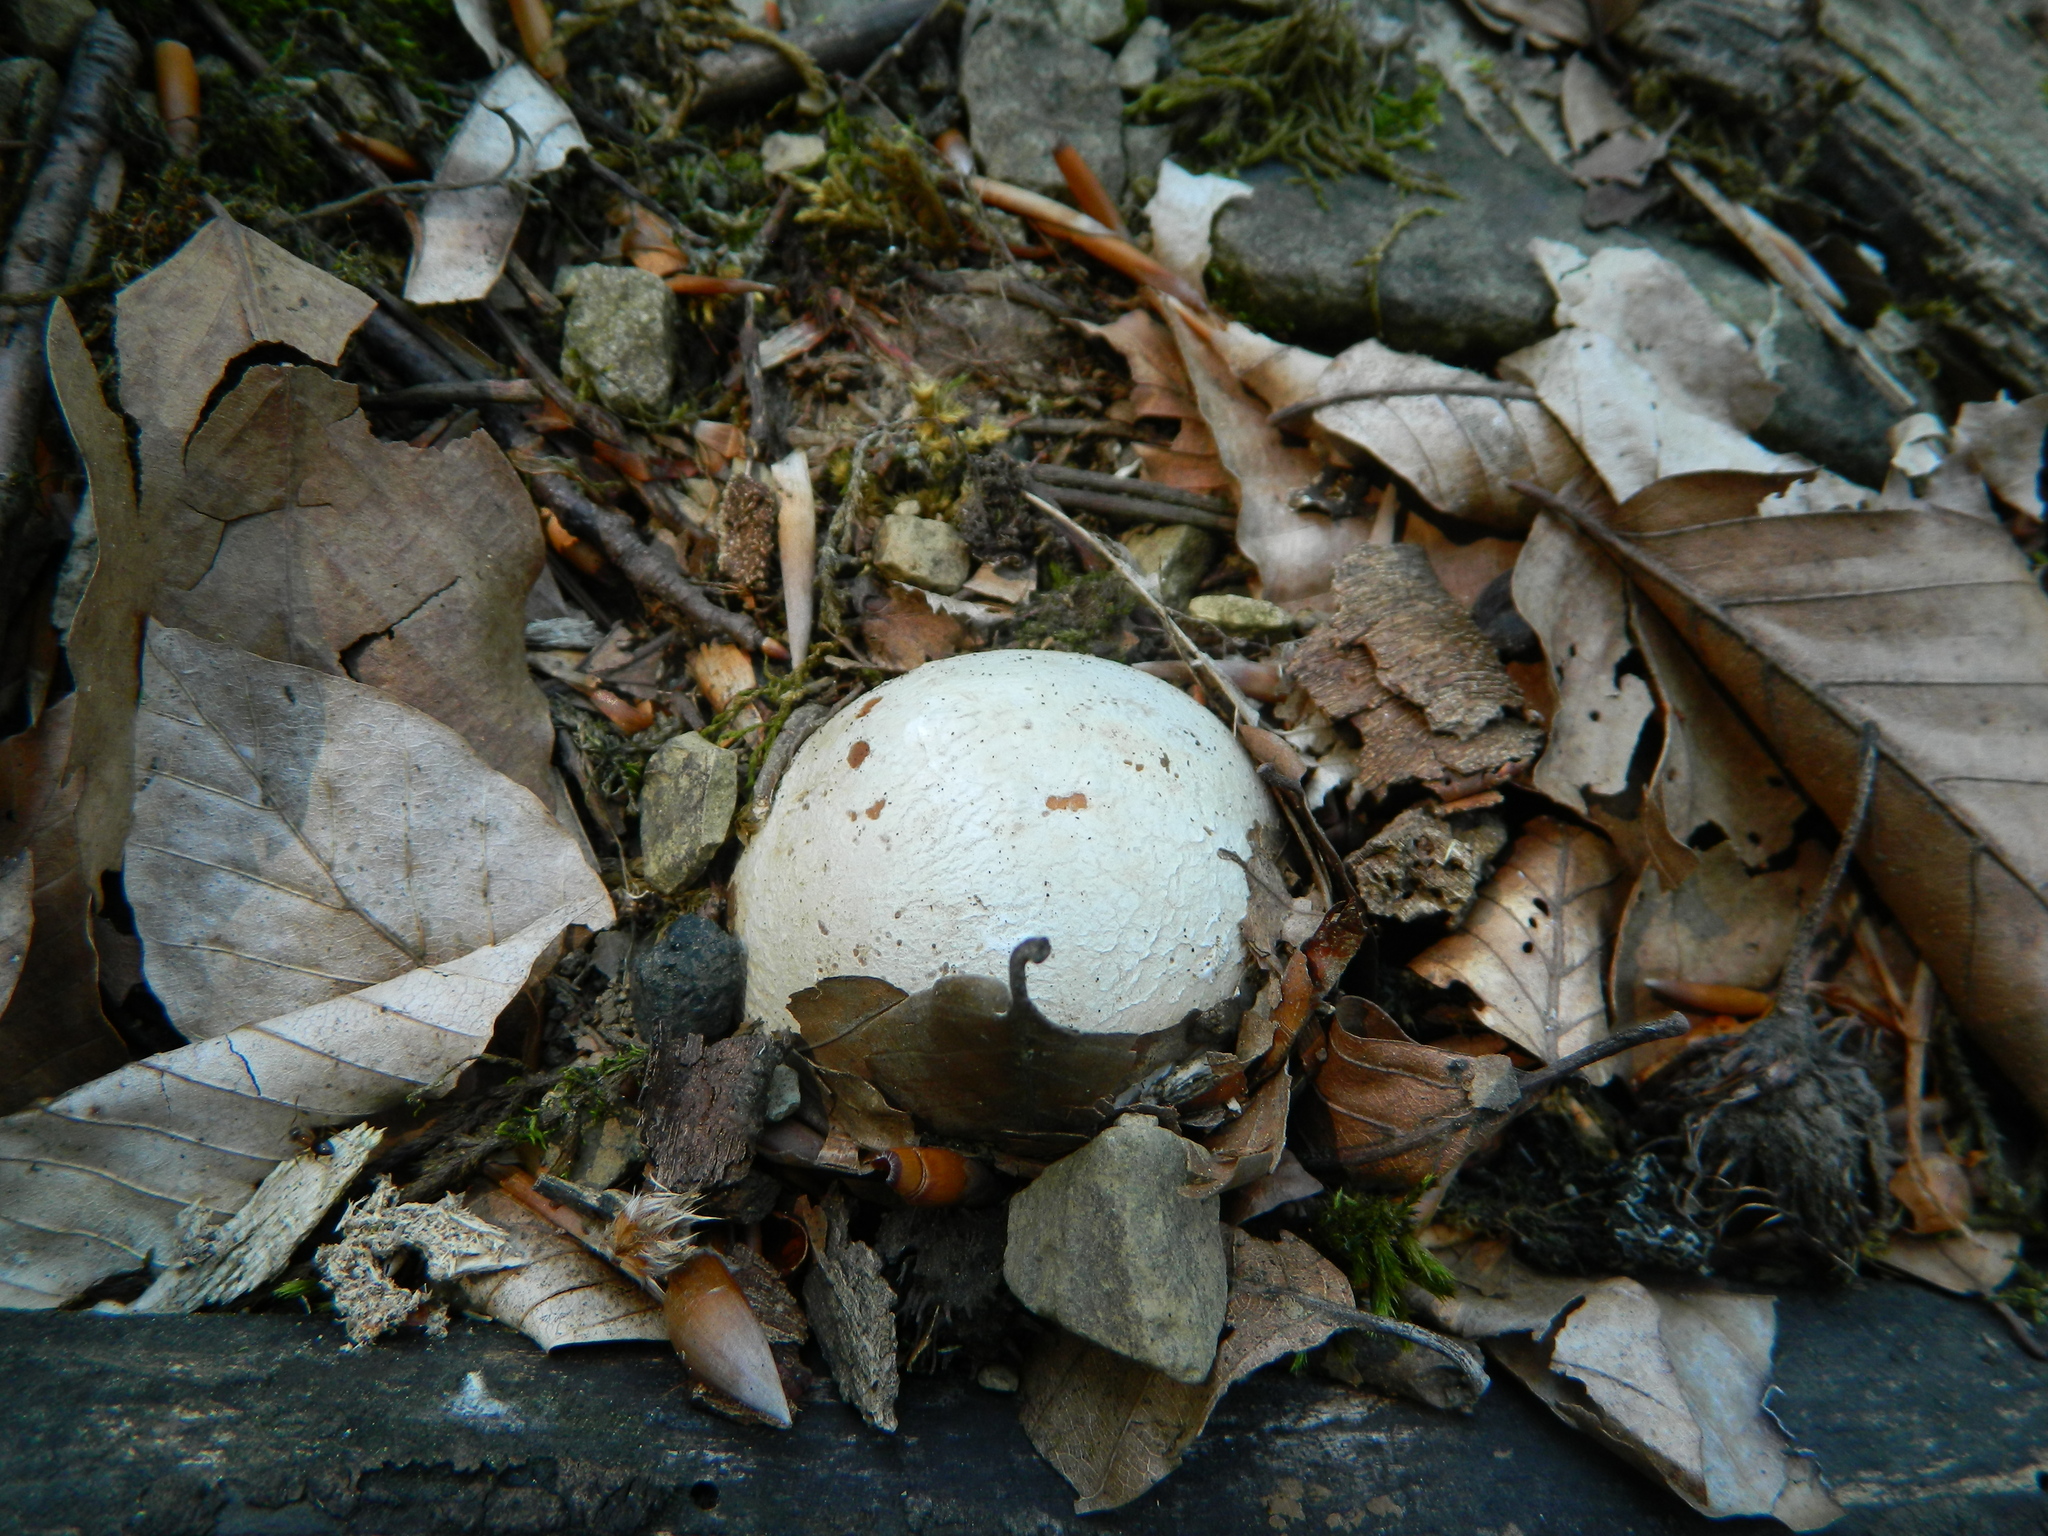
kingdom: Fungi
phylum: Basidiomycota
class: Agaricomycetes
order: Phallales
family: Phallaceae
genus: Phallus
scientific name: Phallus impudicus
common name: Common stinkhorn
